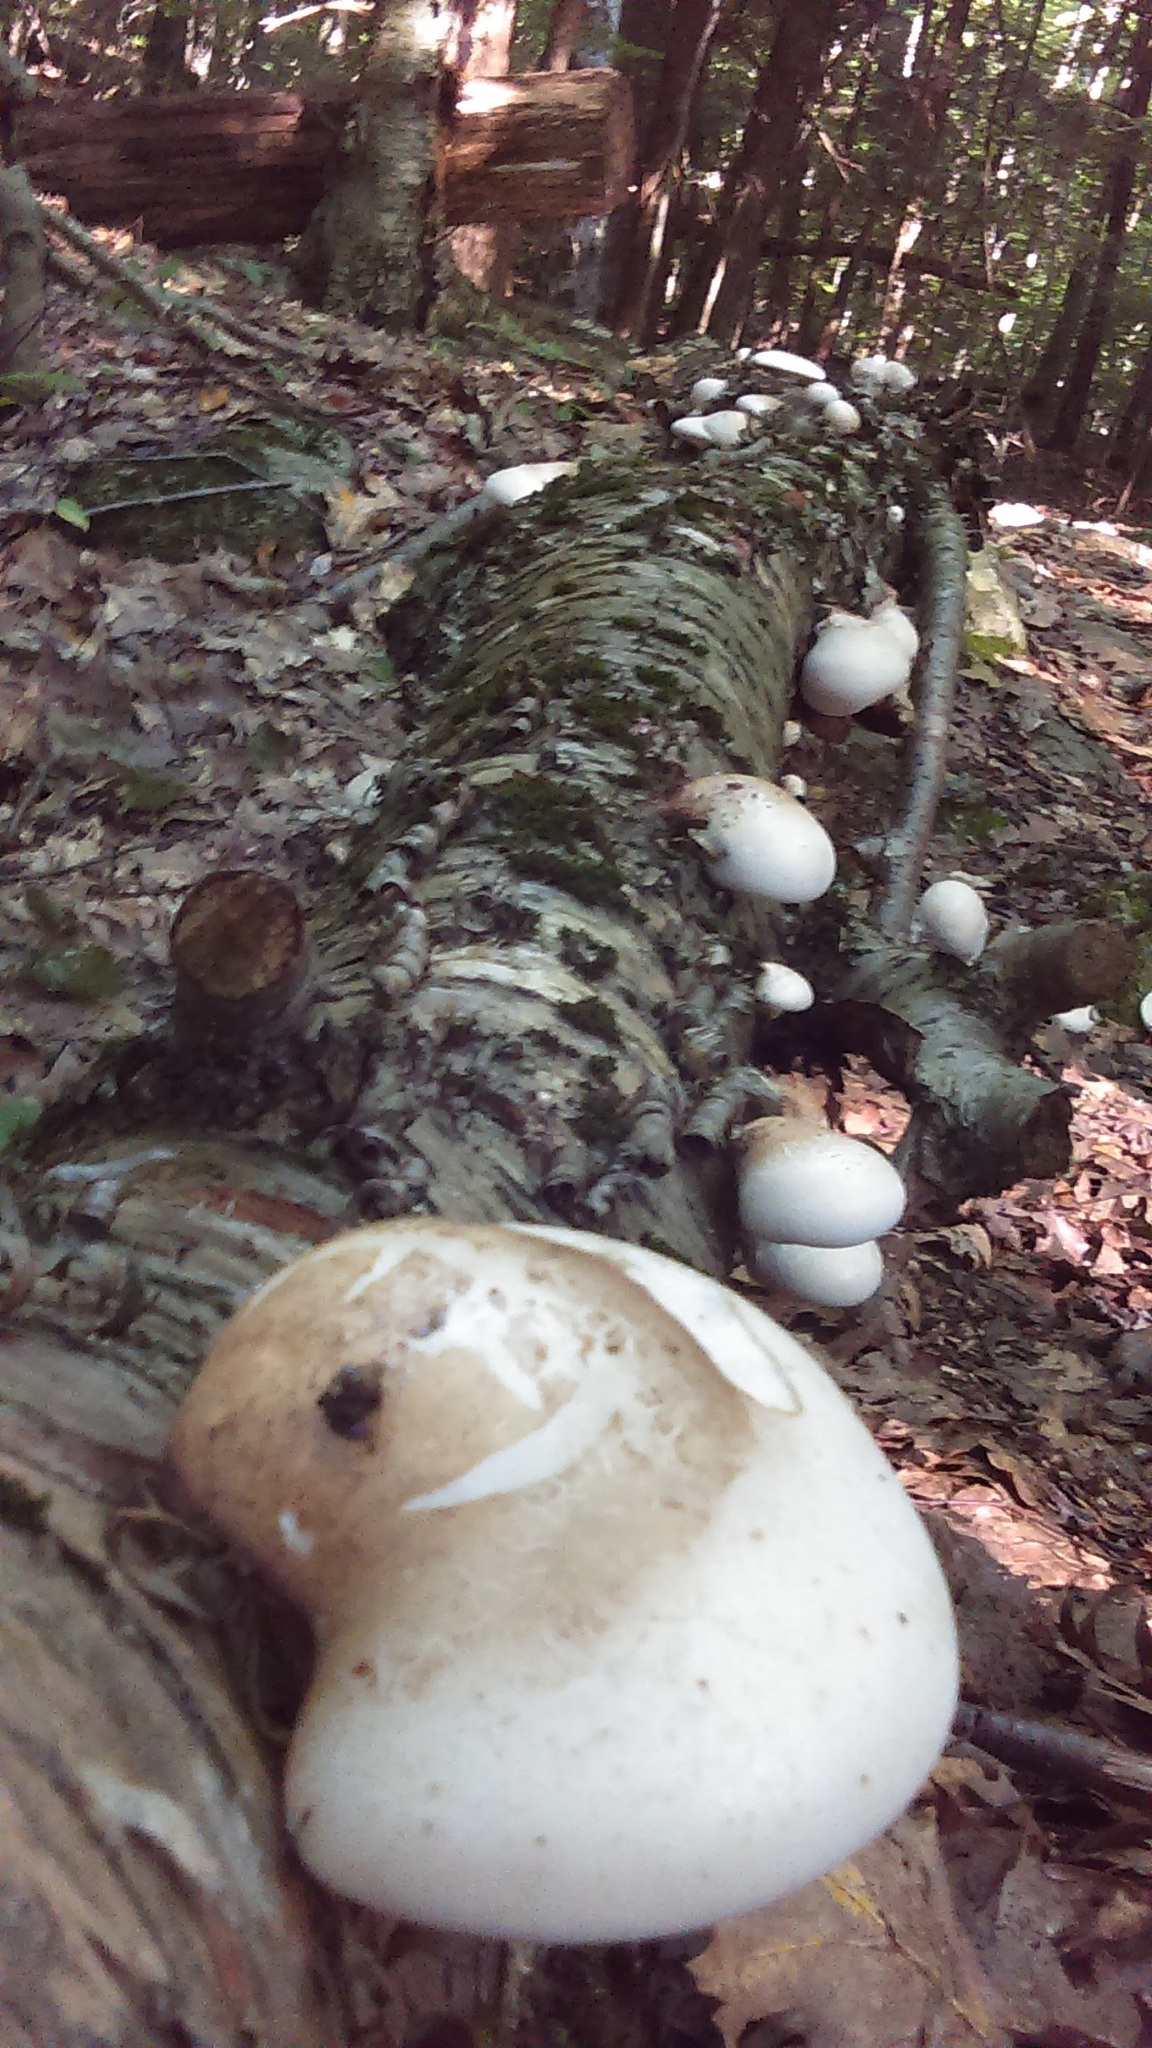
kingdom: Fungi
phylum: Basidiomycota
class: Agaricomycetes
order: Polyporales
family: Fomitopsidaceae
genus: Fomitopsis
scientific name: Fomitopsis betulina
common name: Birch polypore
